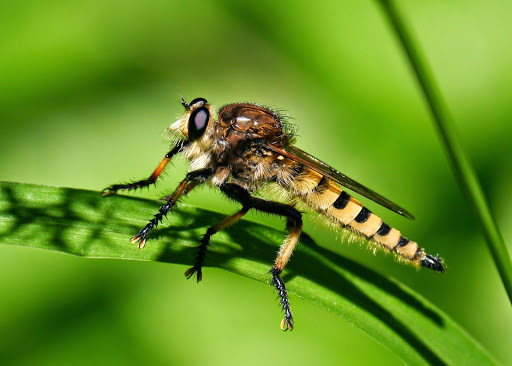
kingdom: Animalia
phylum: Arthropoda
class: Insecta
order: Diptera
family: Asilidae
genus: Promachus
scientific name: Promachus rufipes
